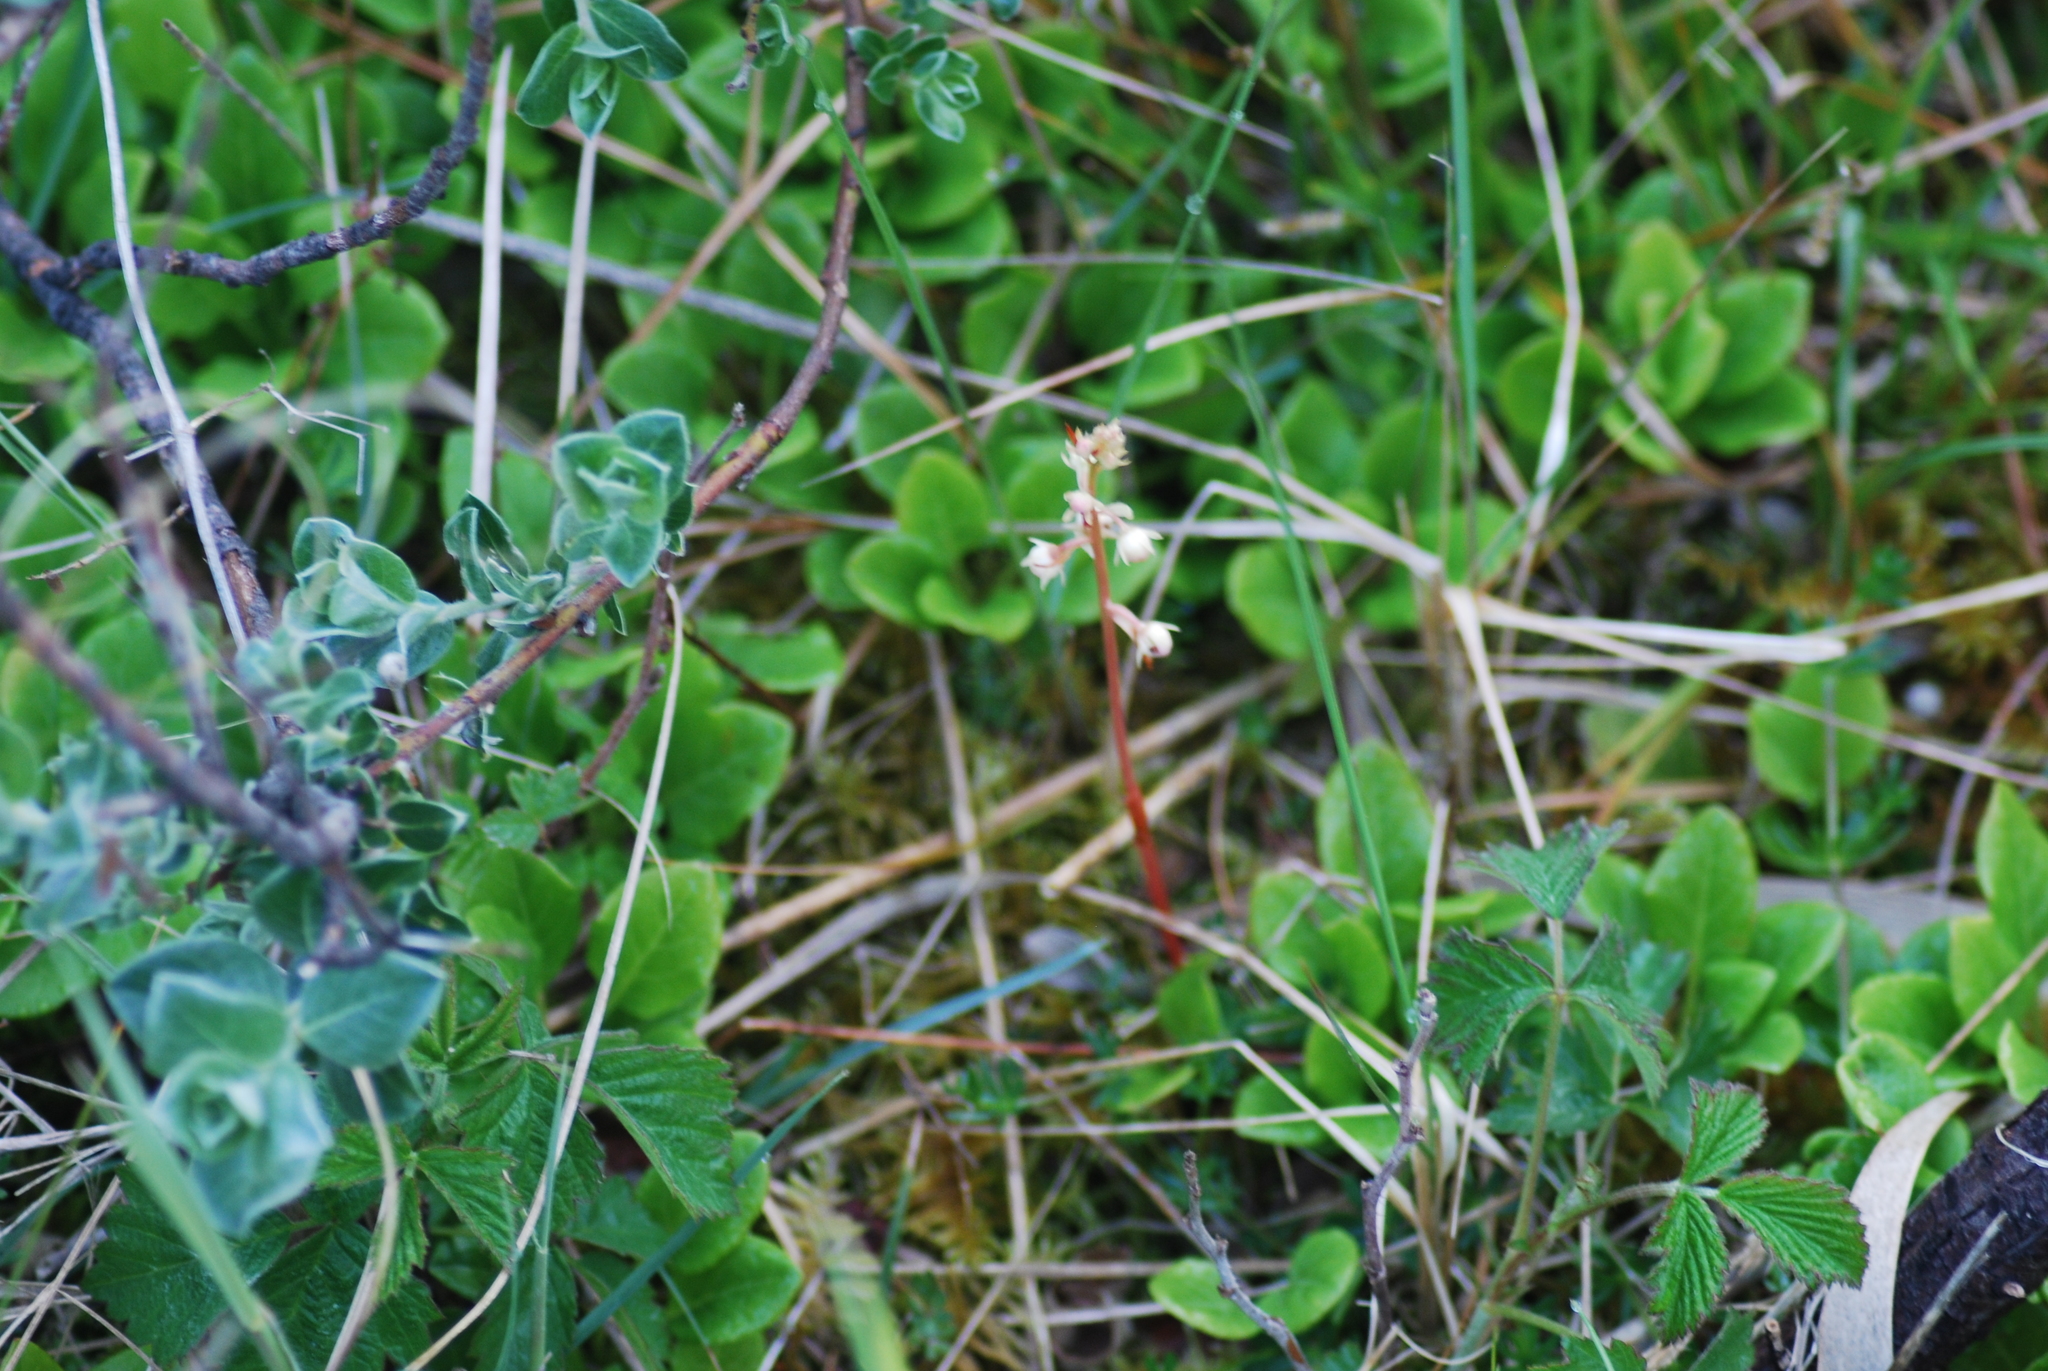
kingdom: Plantae
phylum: Tracheophyta
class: Magnoliopsida
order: Ericales
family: Ericaceae
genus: Pyrola
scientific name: Pyrola rotundifolia
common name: Round-leaved wintergreen
